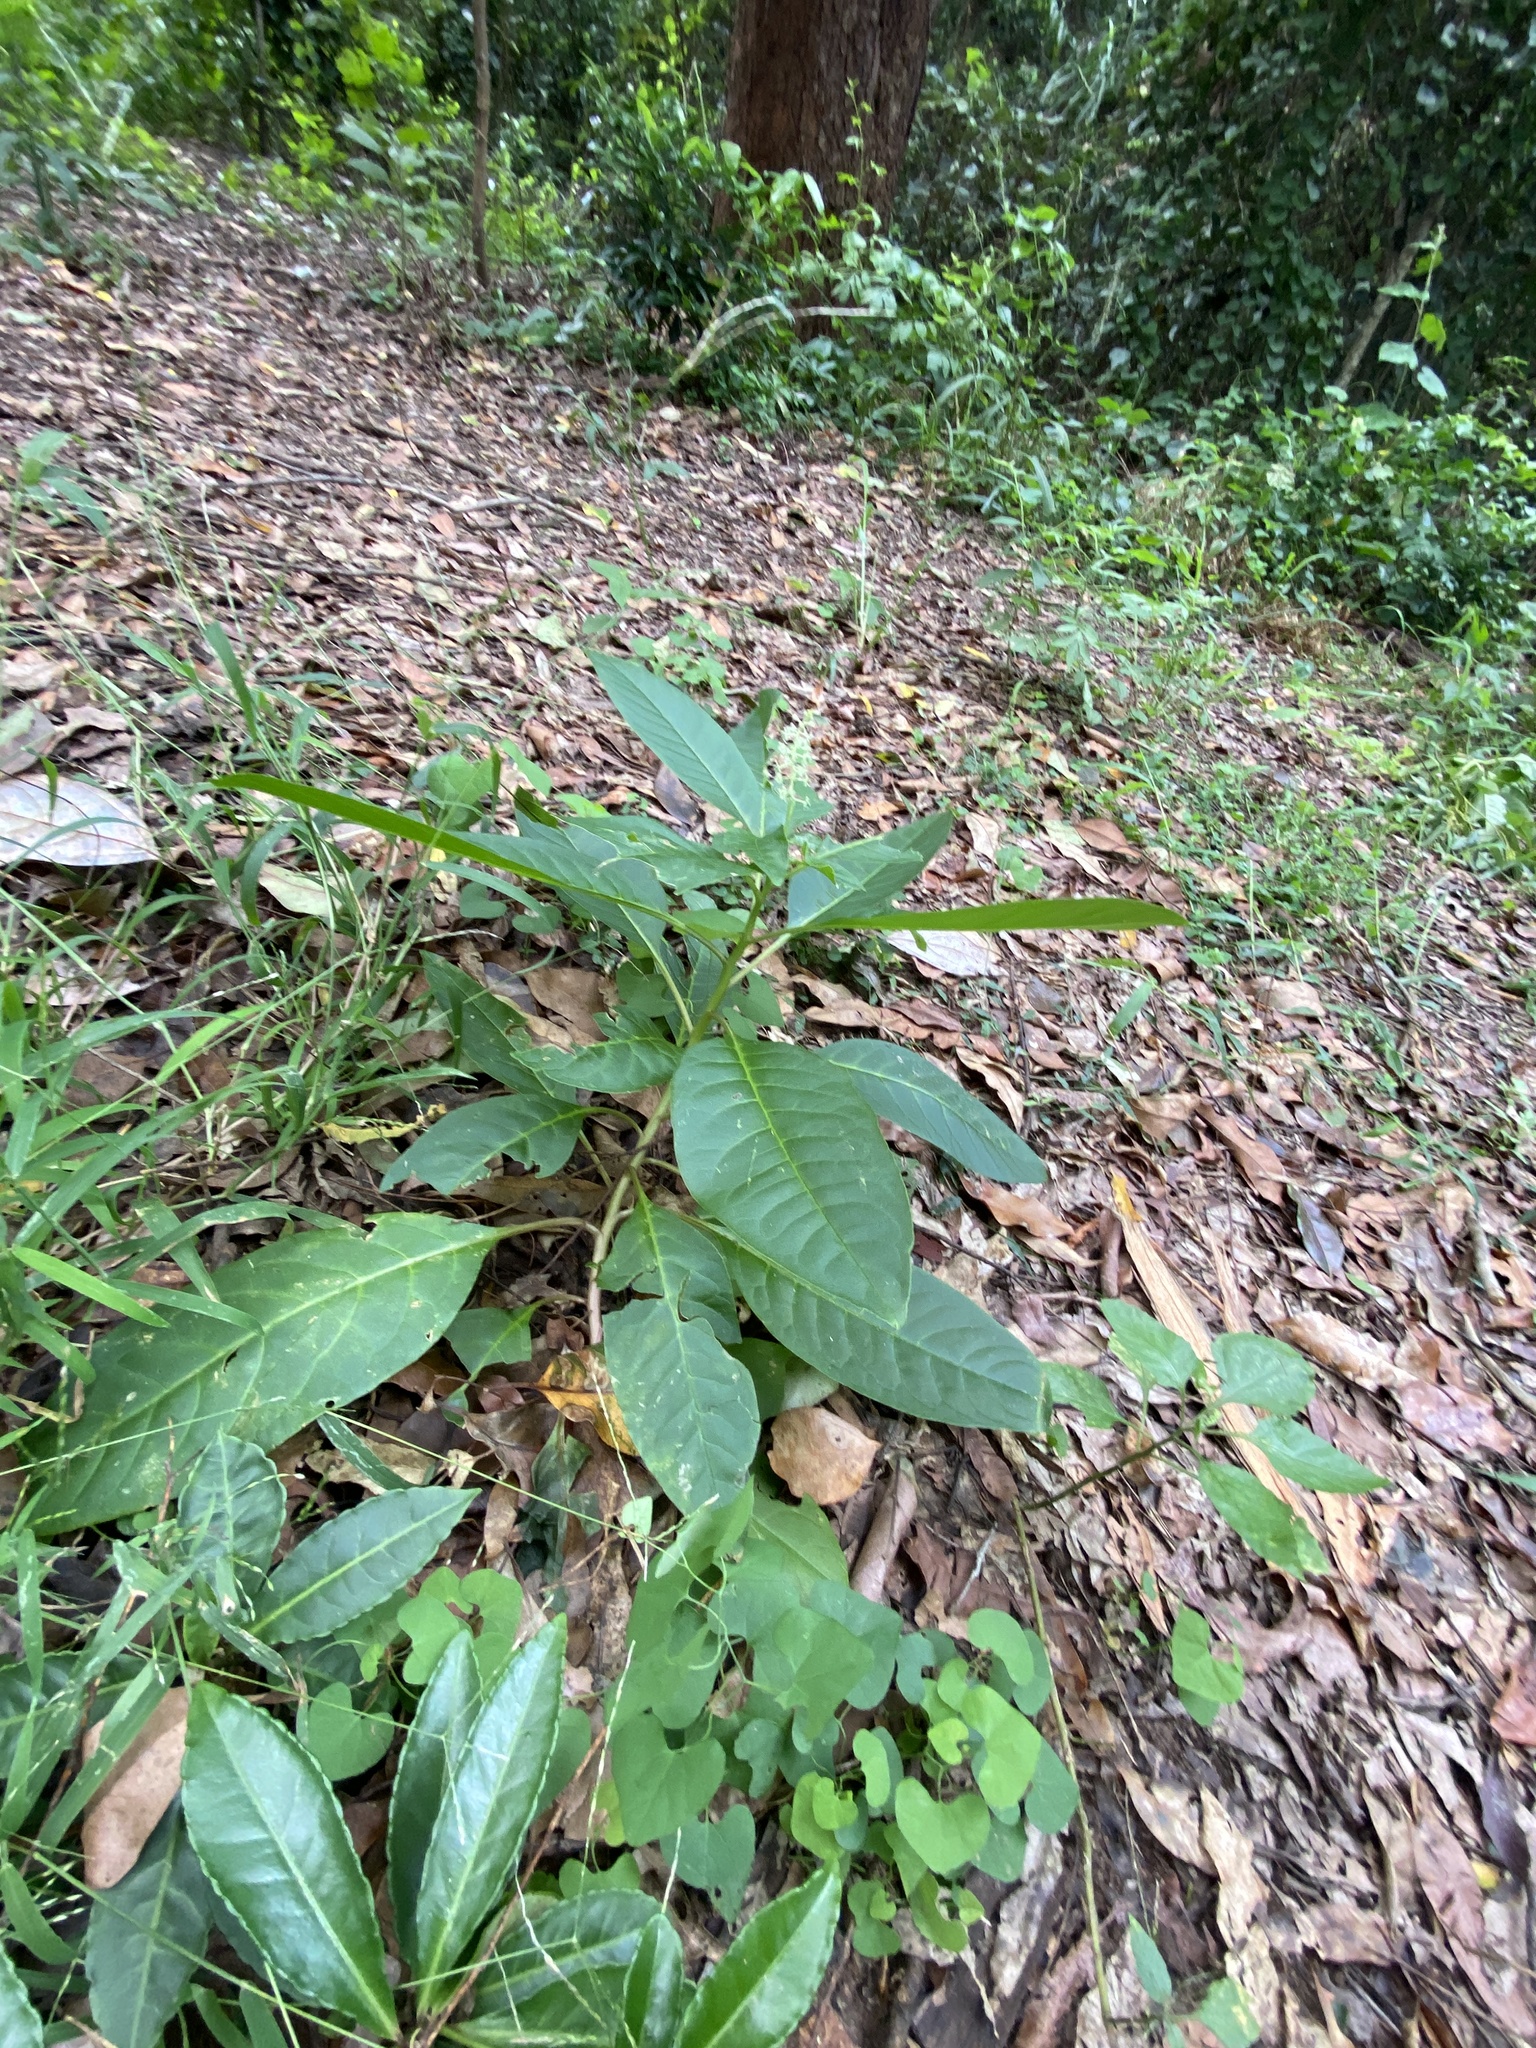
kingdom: Plantae
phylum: Tracheophyta
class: Magnoliopsida
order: Caryophyllales
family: Phytolaccaceae
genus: Phytolacca
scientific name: Phytolacca americana
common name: American pokeweed
